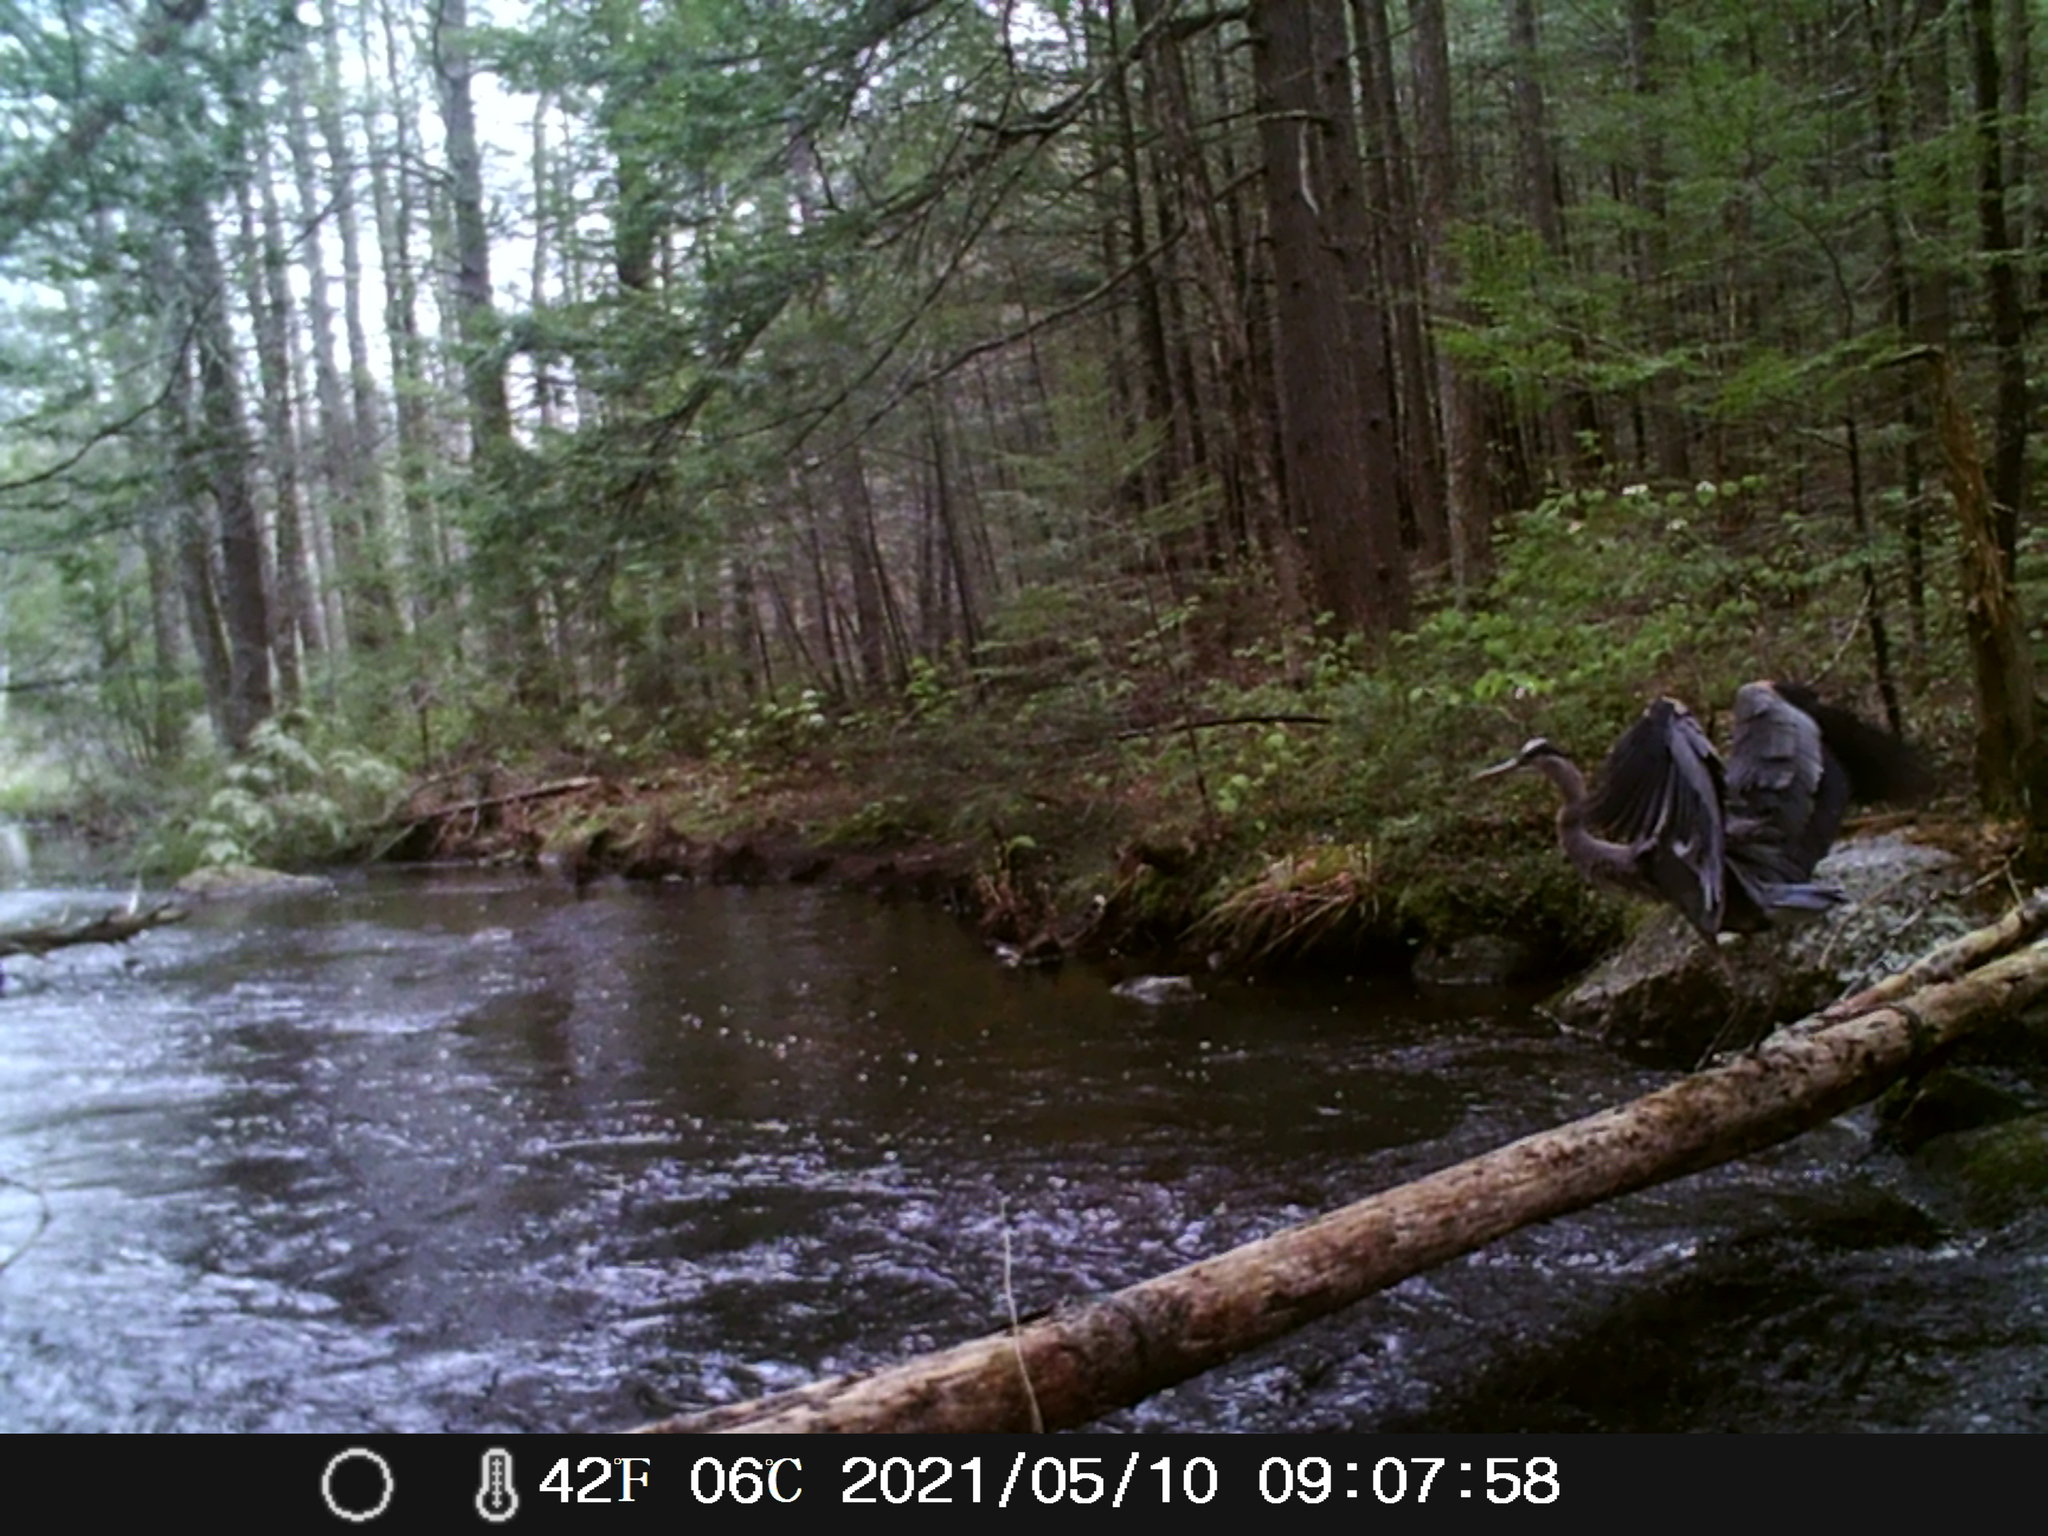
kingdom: Animalia
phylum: Chordata
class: Aves
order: Pelecaniformes
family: Ardeidae
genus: Ardea
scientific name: Ardea herodias
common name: Great blue heron
